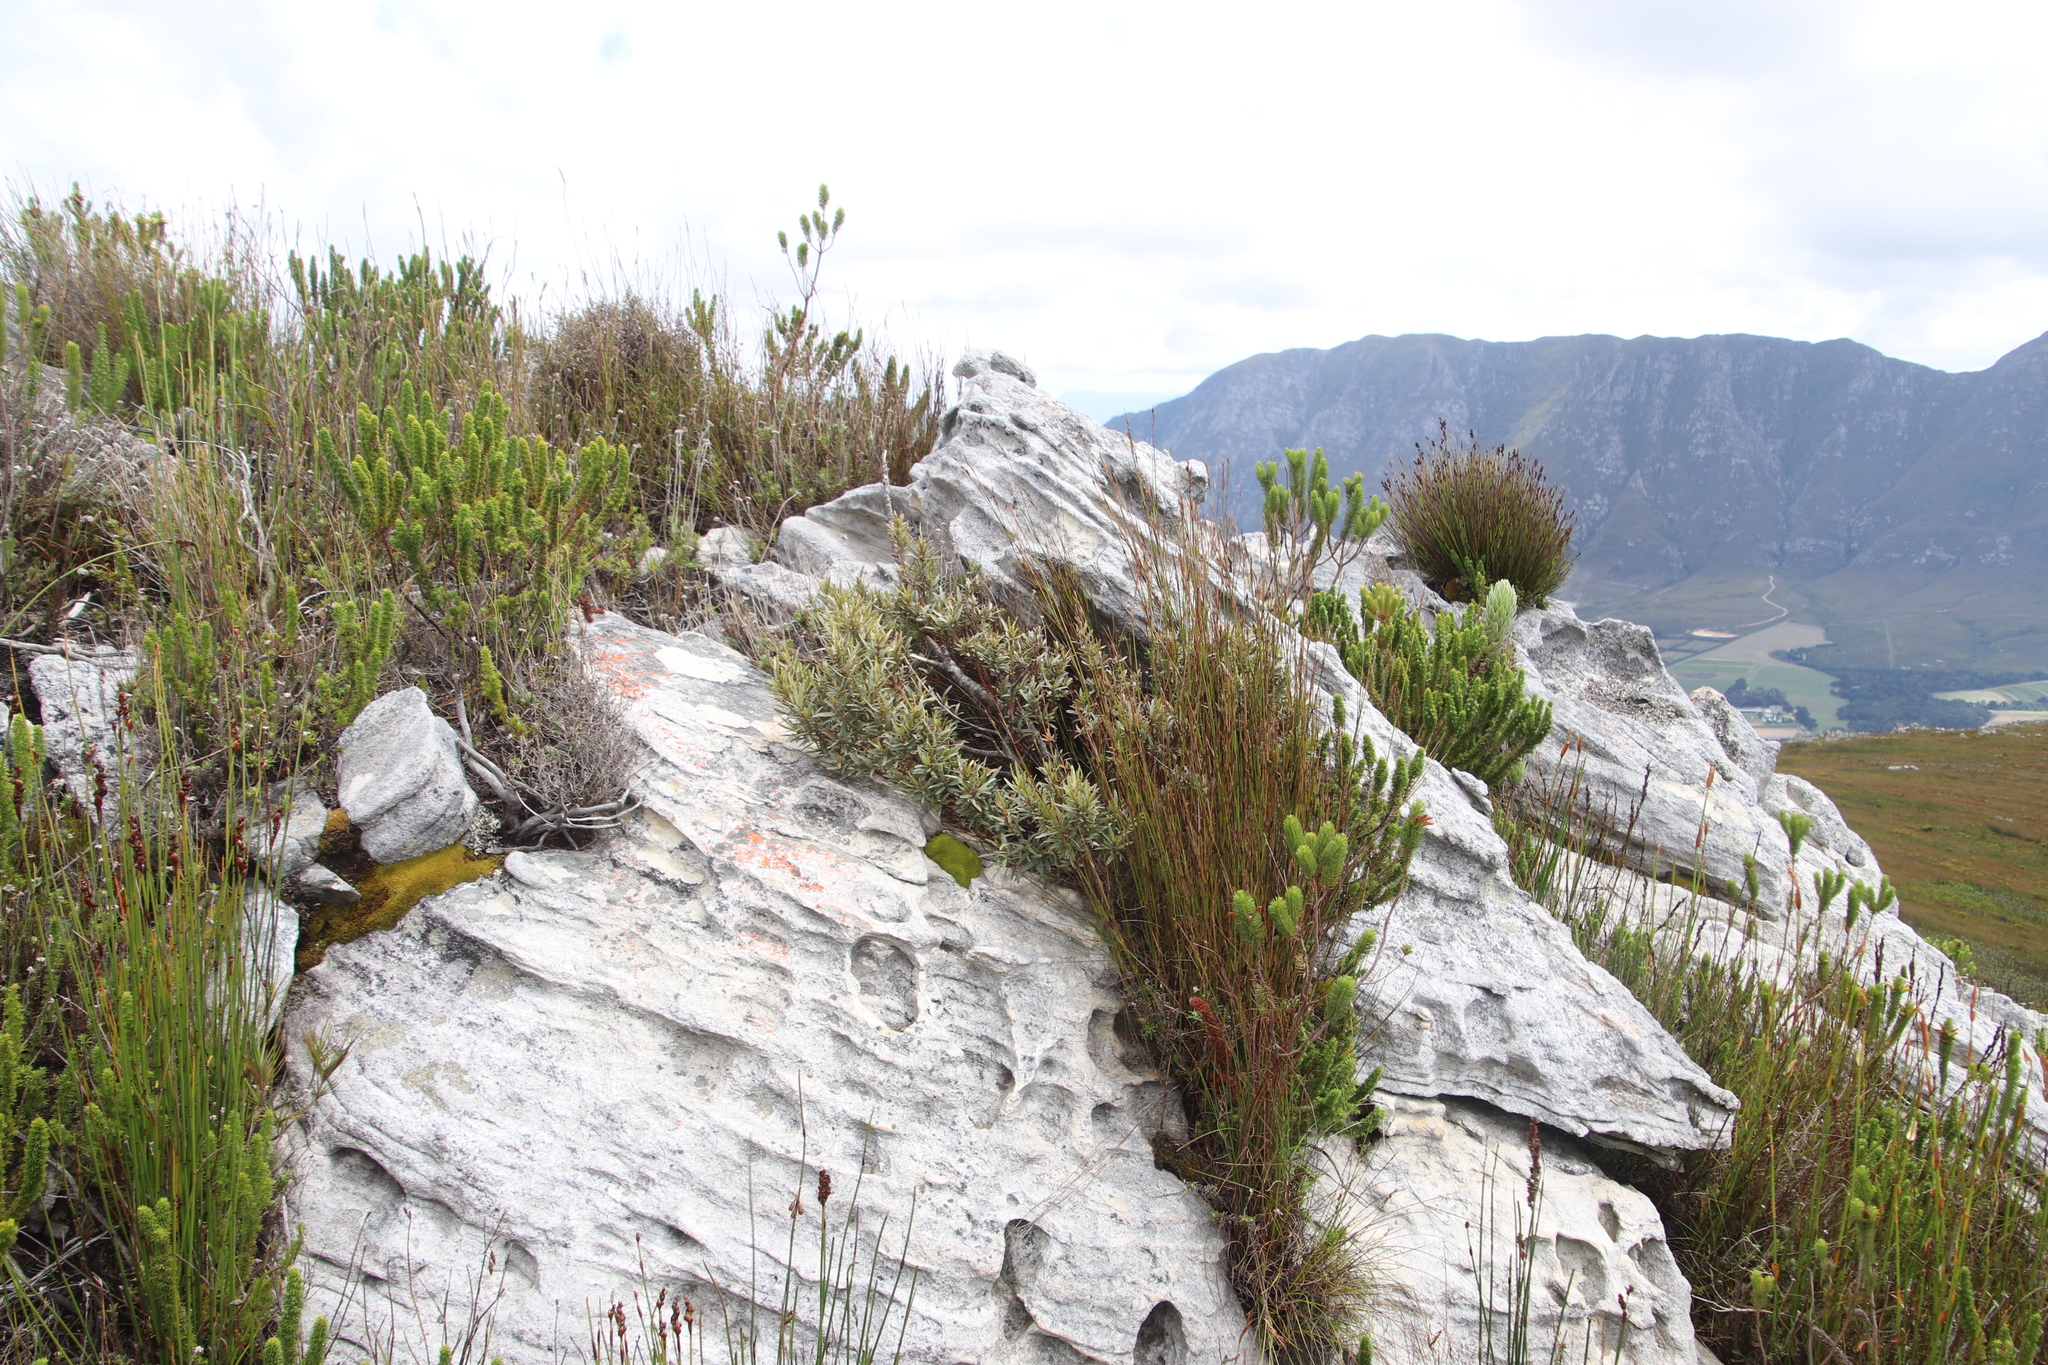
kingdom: Plantae
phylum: Tracheophyta
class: Magnoliopsida
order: Cornales
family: Grubbiaceae
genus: Grubbia
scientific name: Grubbia tomentosa
